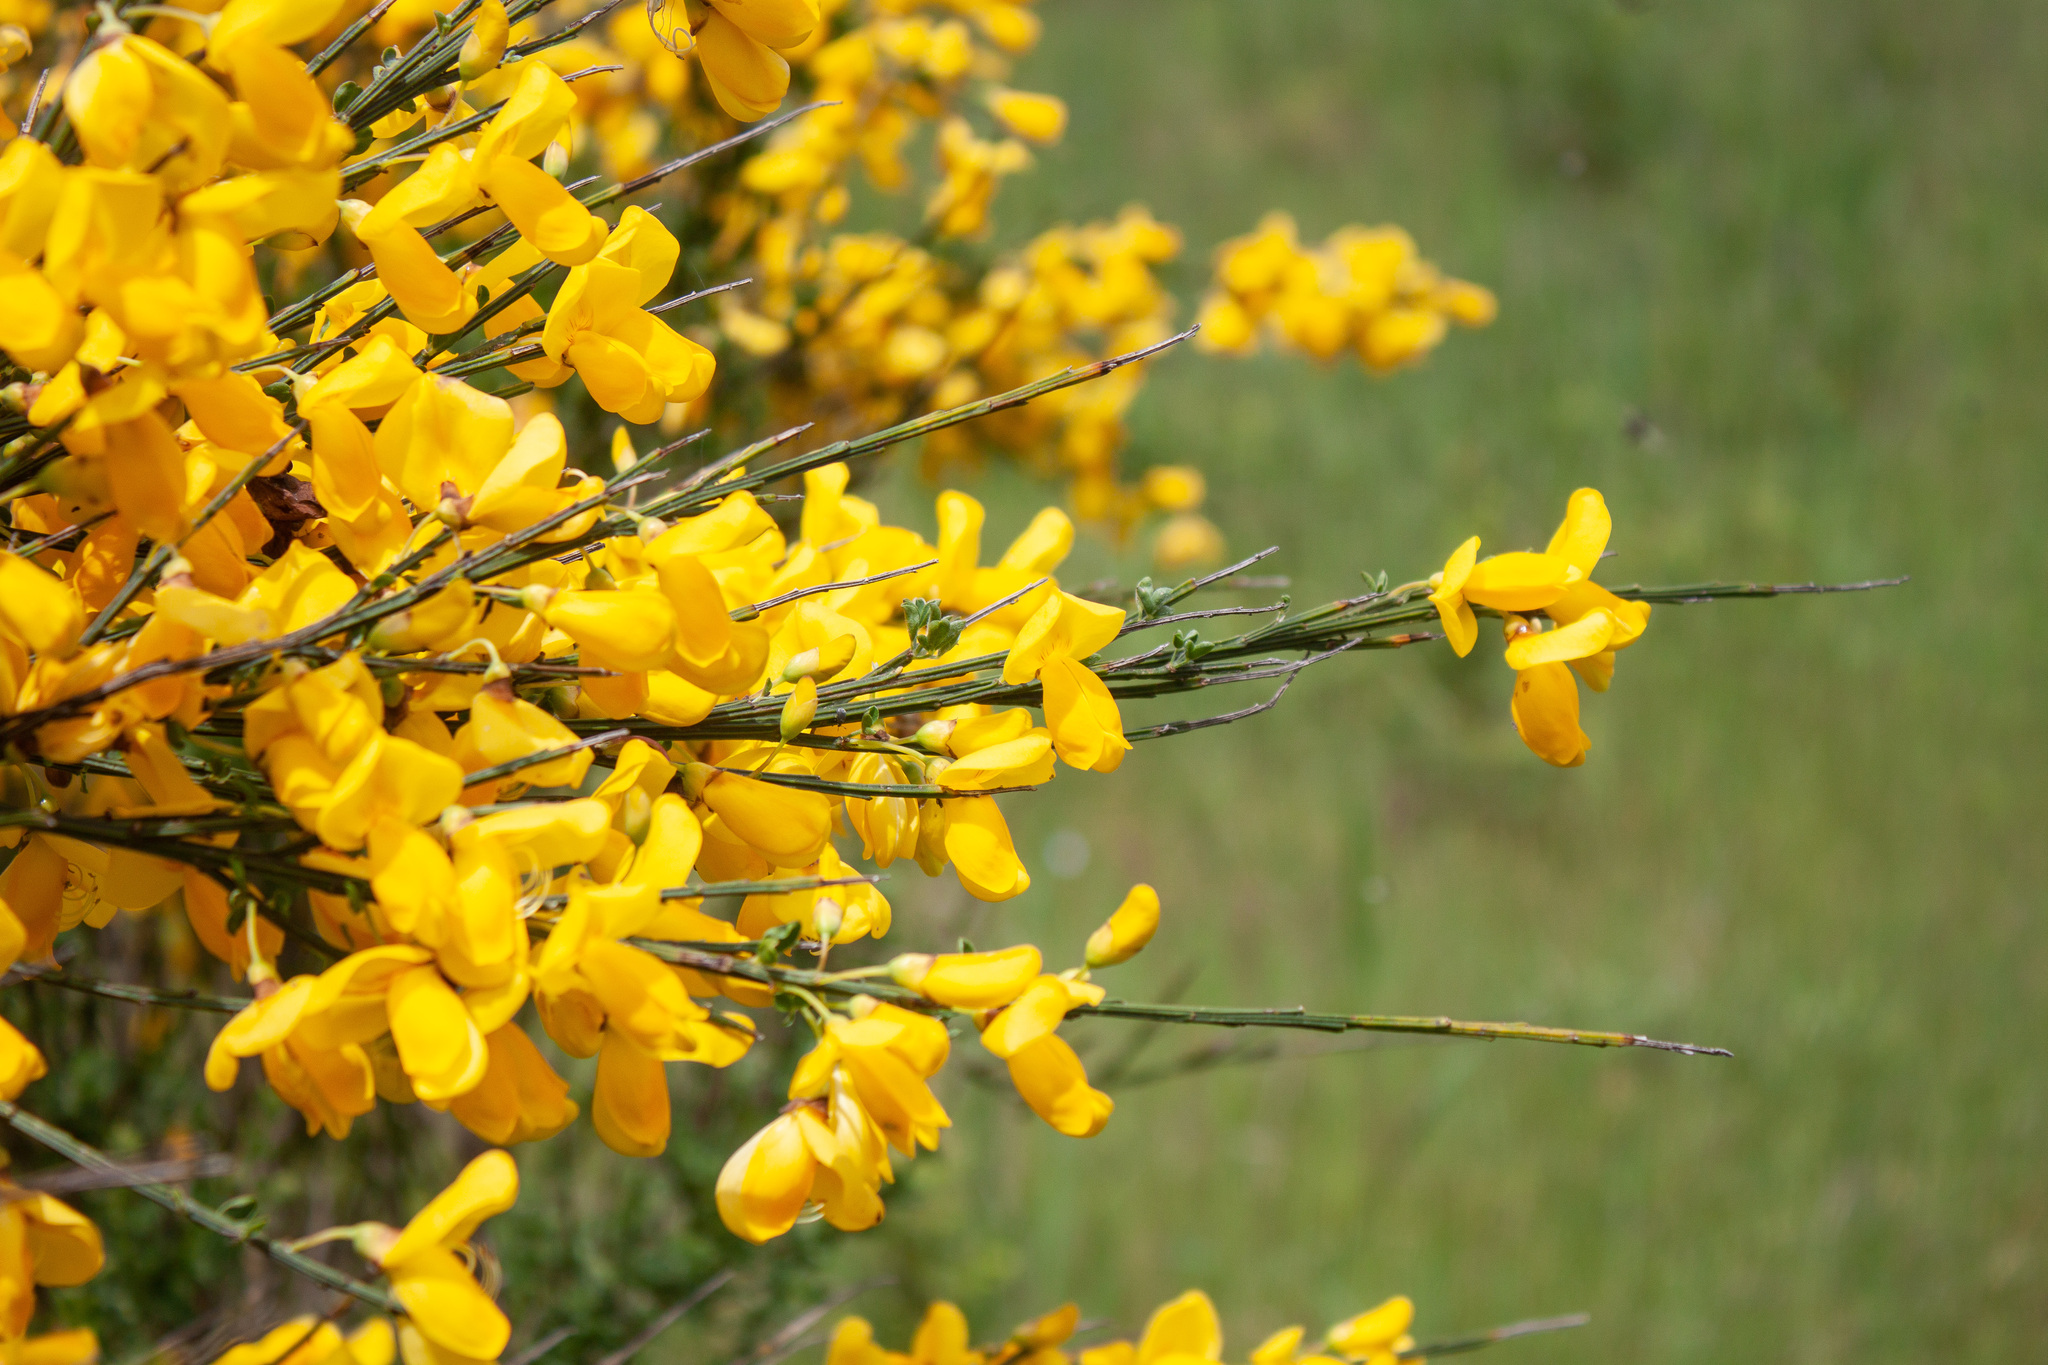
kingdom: Plantae
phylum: Tracheophyta
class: Magnoliopsida
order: Fabales
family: Fabaceae
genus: Cytisus
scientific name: Cytisus scoparius
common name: Scotch broom
